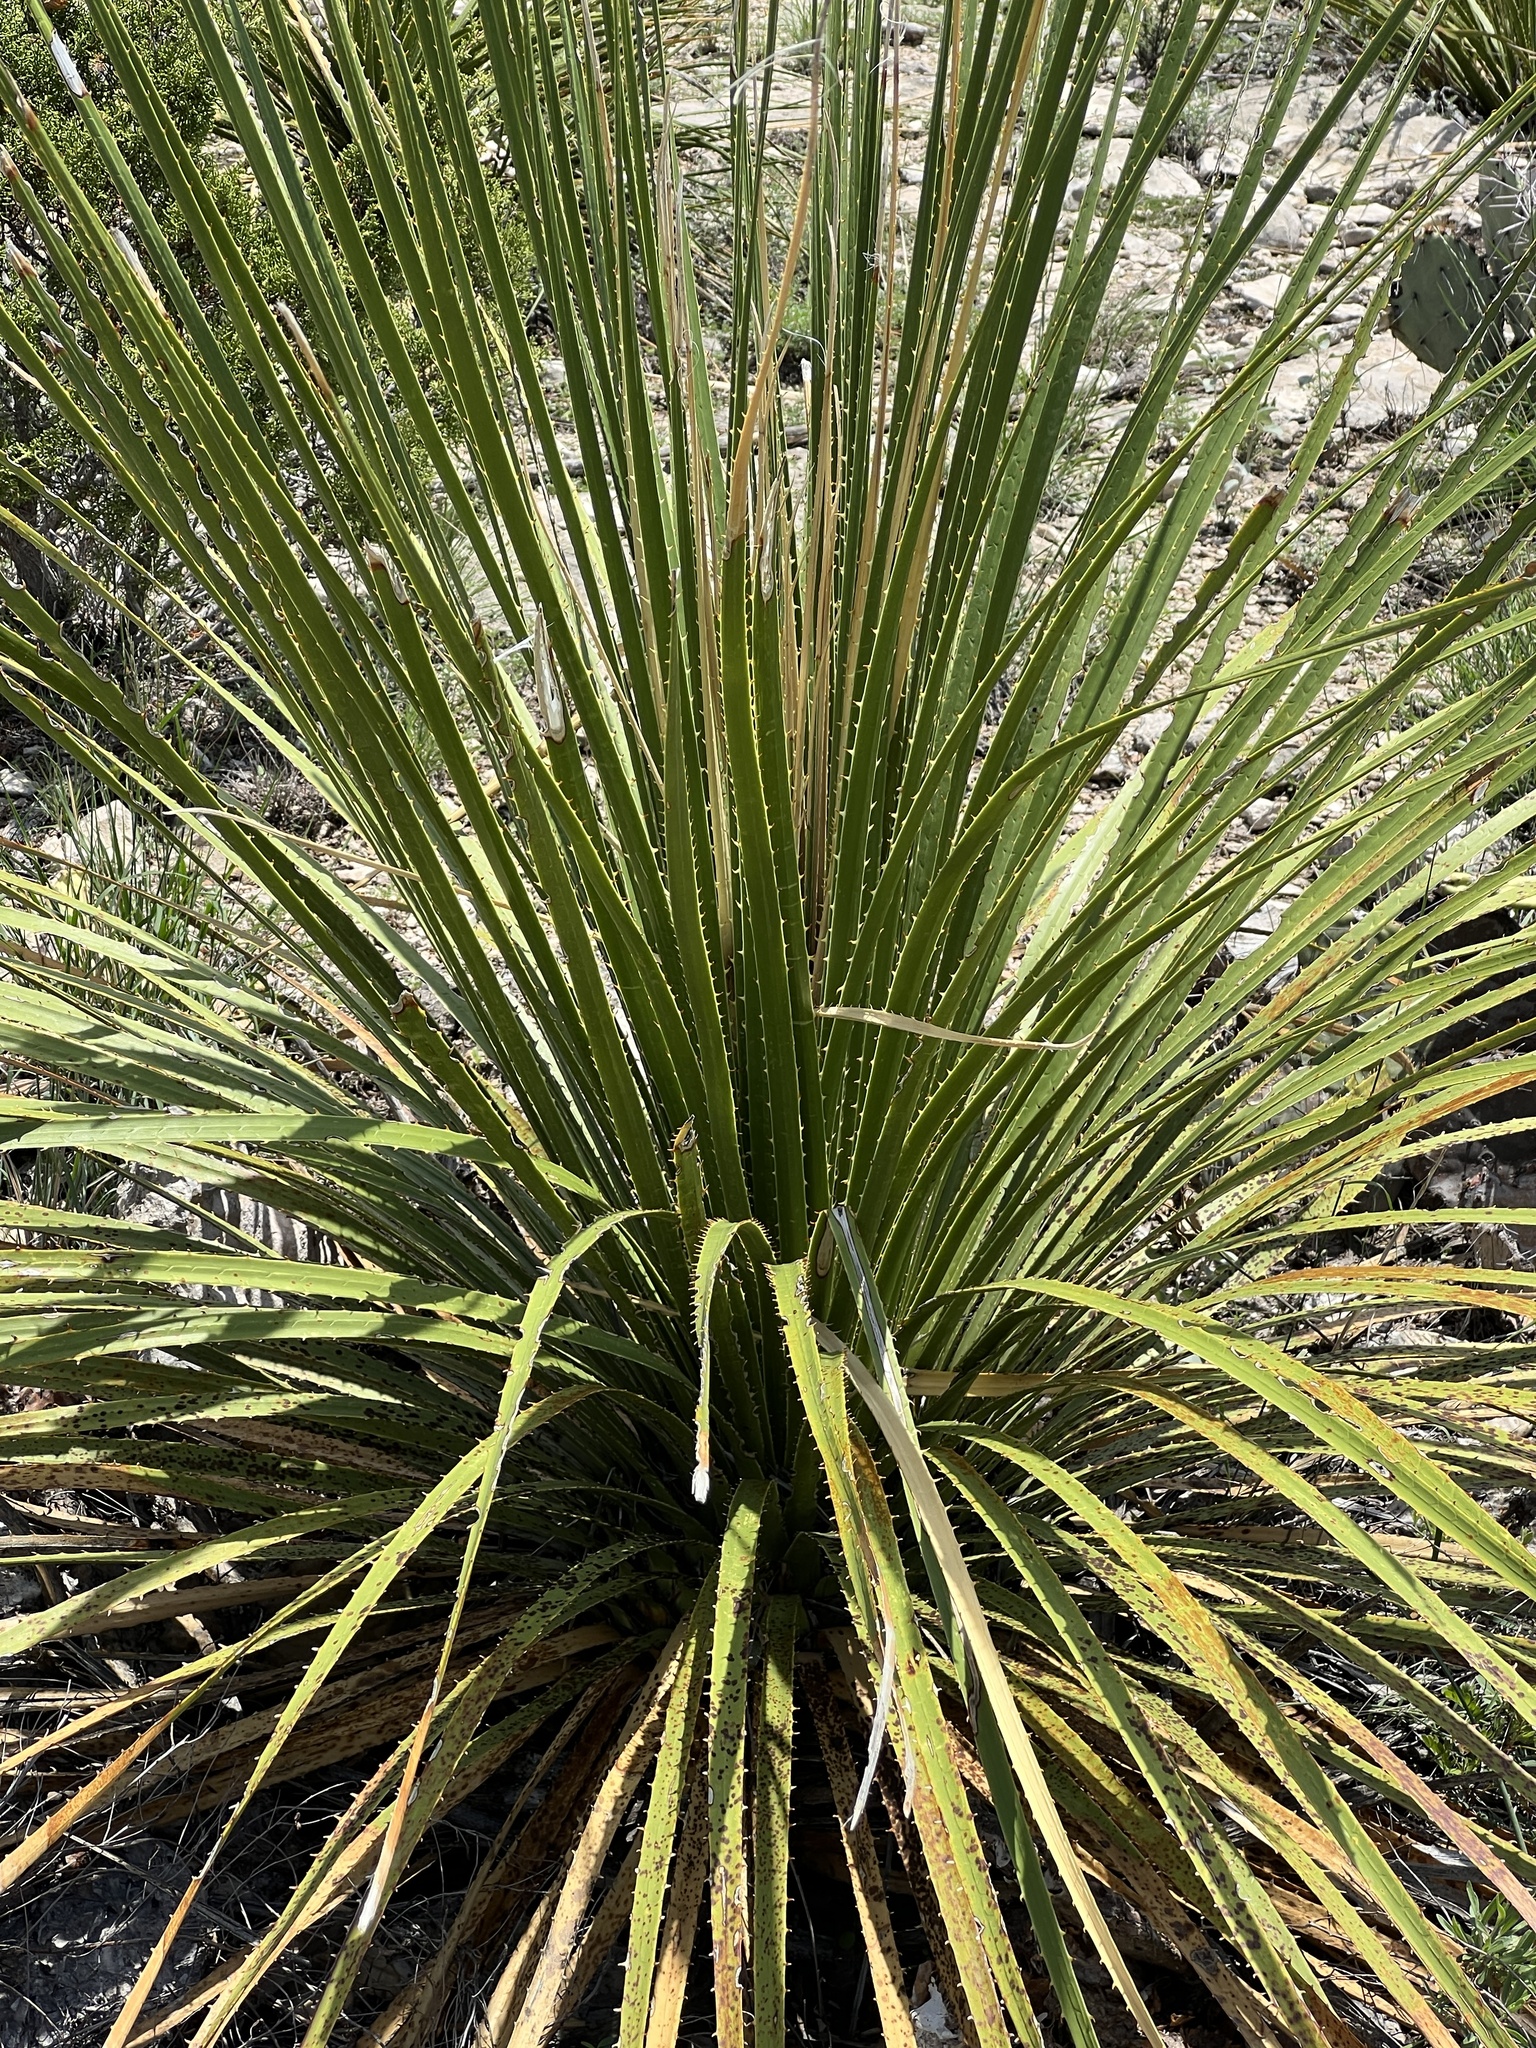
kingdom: Plantae
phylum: Tracheophyta
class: Liliopsida
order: Asparagales
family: Asparagaceae
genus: Dasylirion
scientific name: Dasylirion texanum
